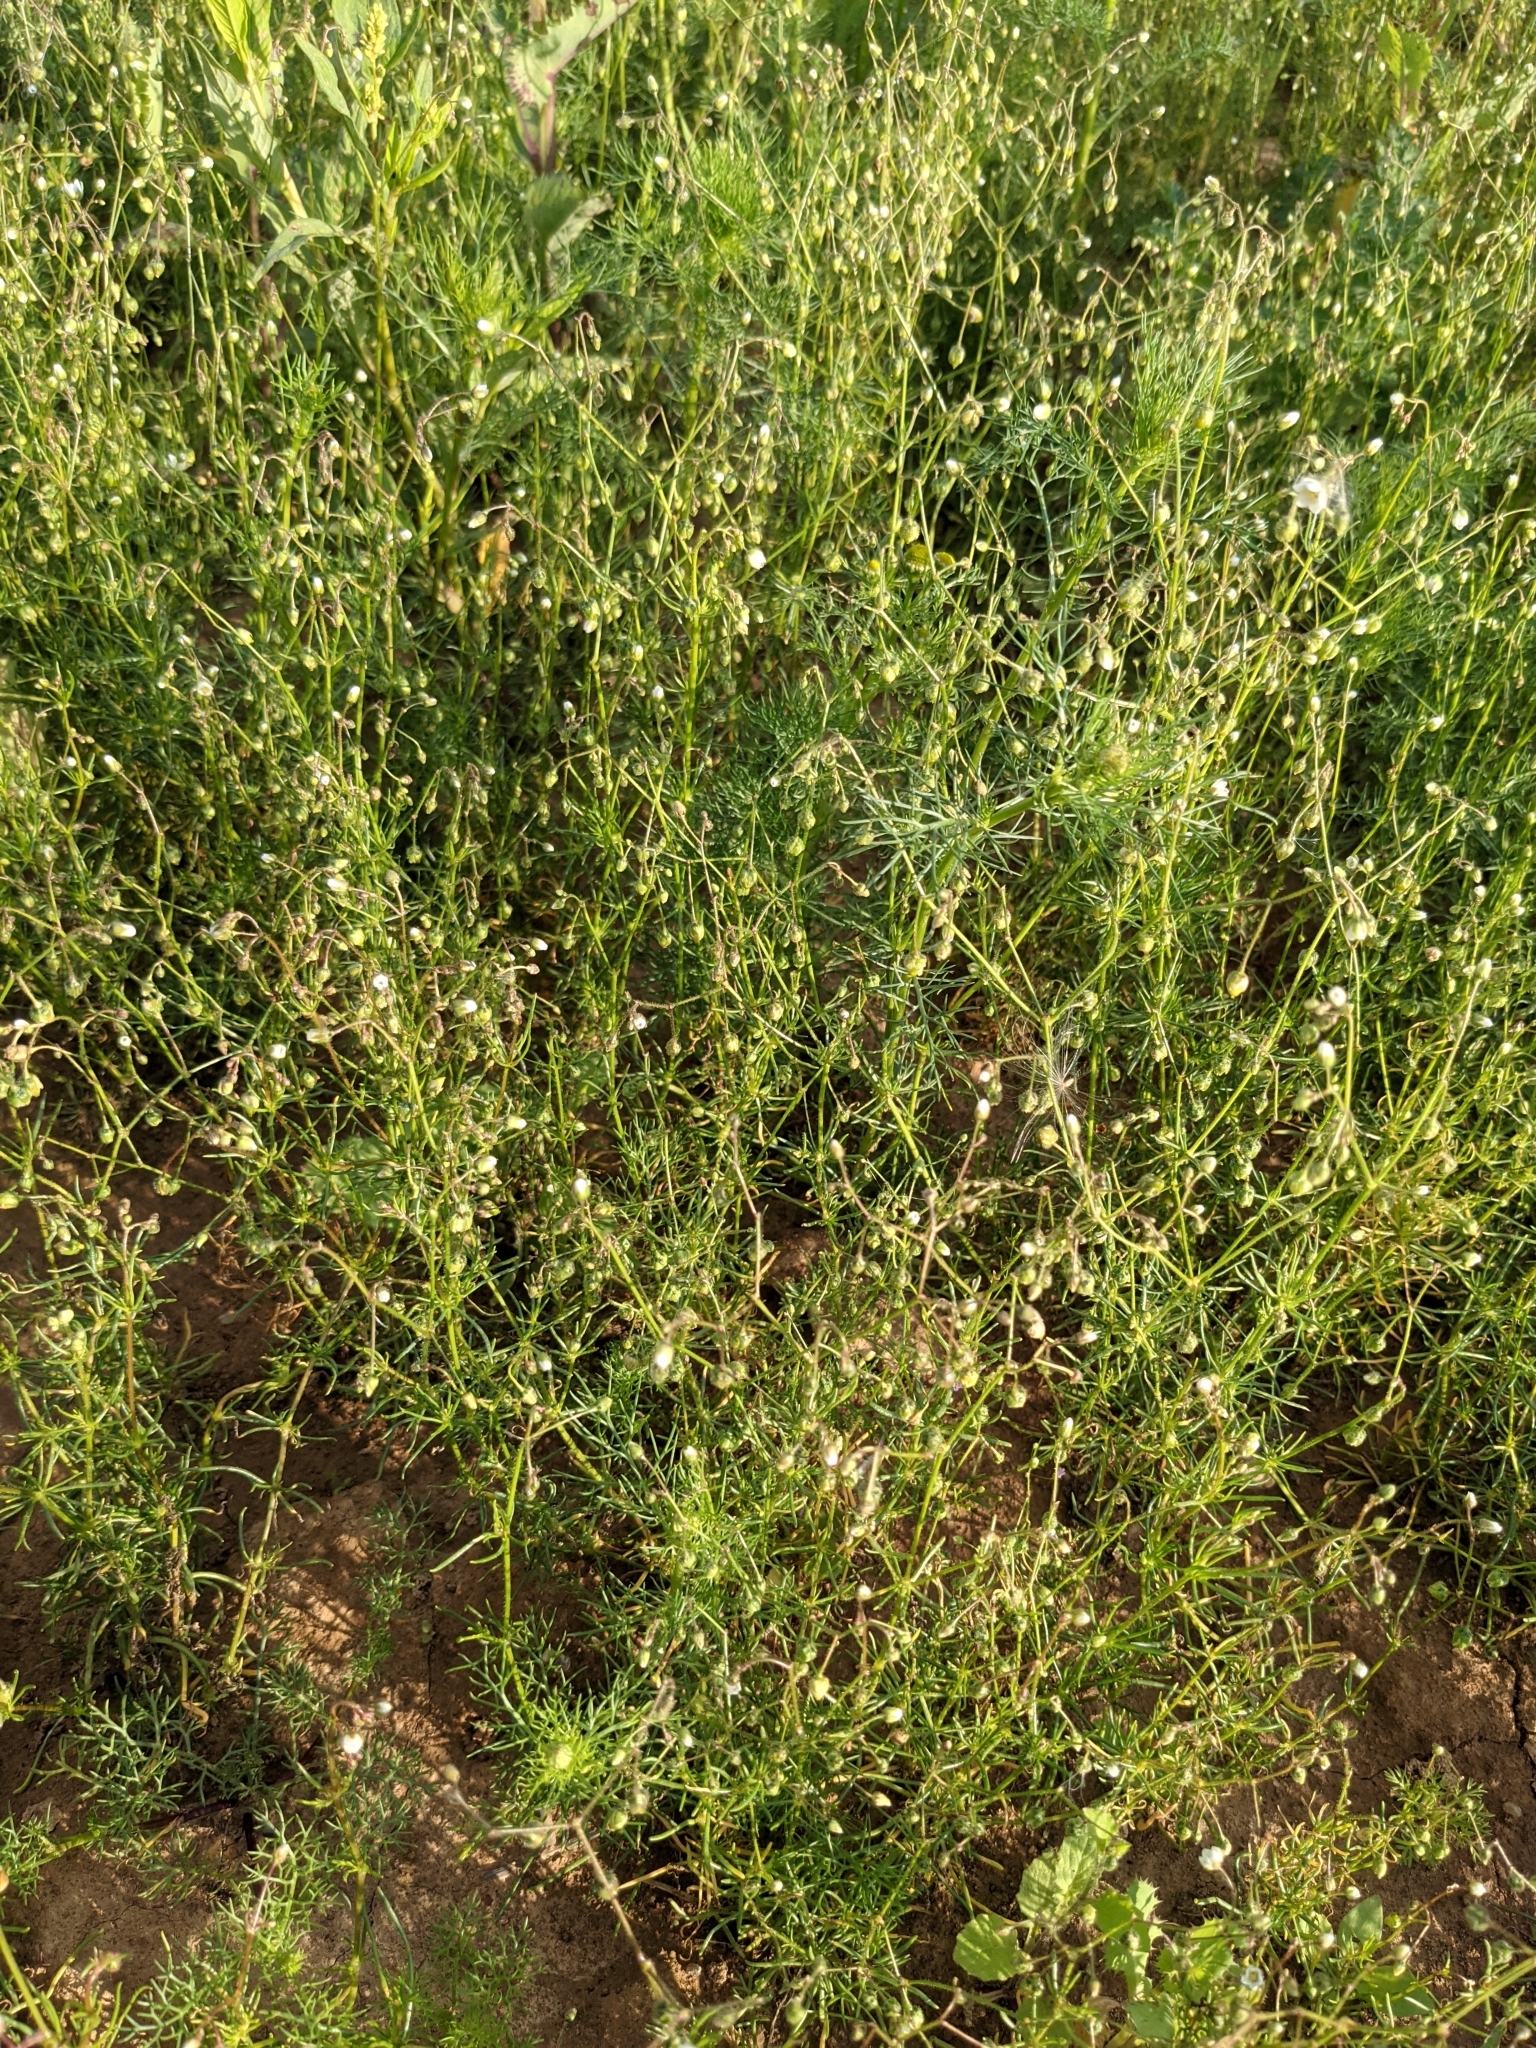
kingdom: Plantae
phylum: Tracheophyta
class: Magnoliopsida
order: Caryophyllales
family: Caryophyllaceae
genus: Spergula
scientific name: Spergula arvensis
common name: Corn spurrey
